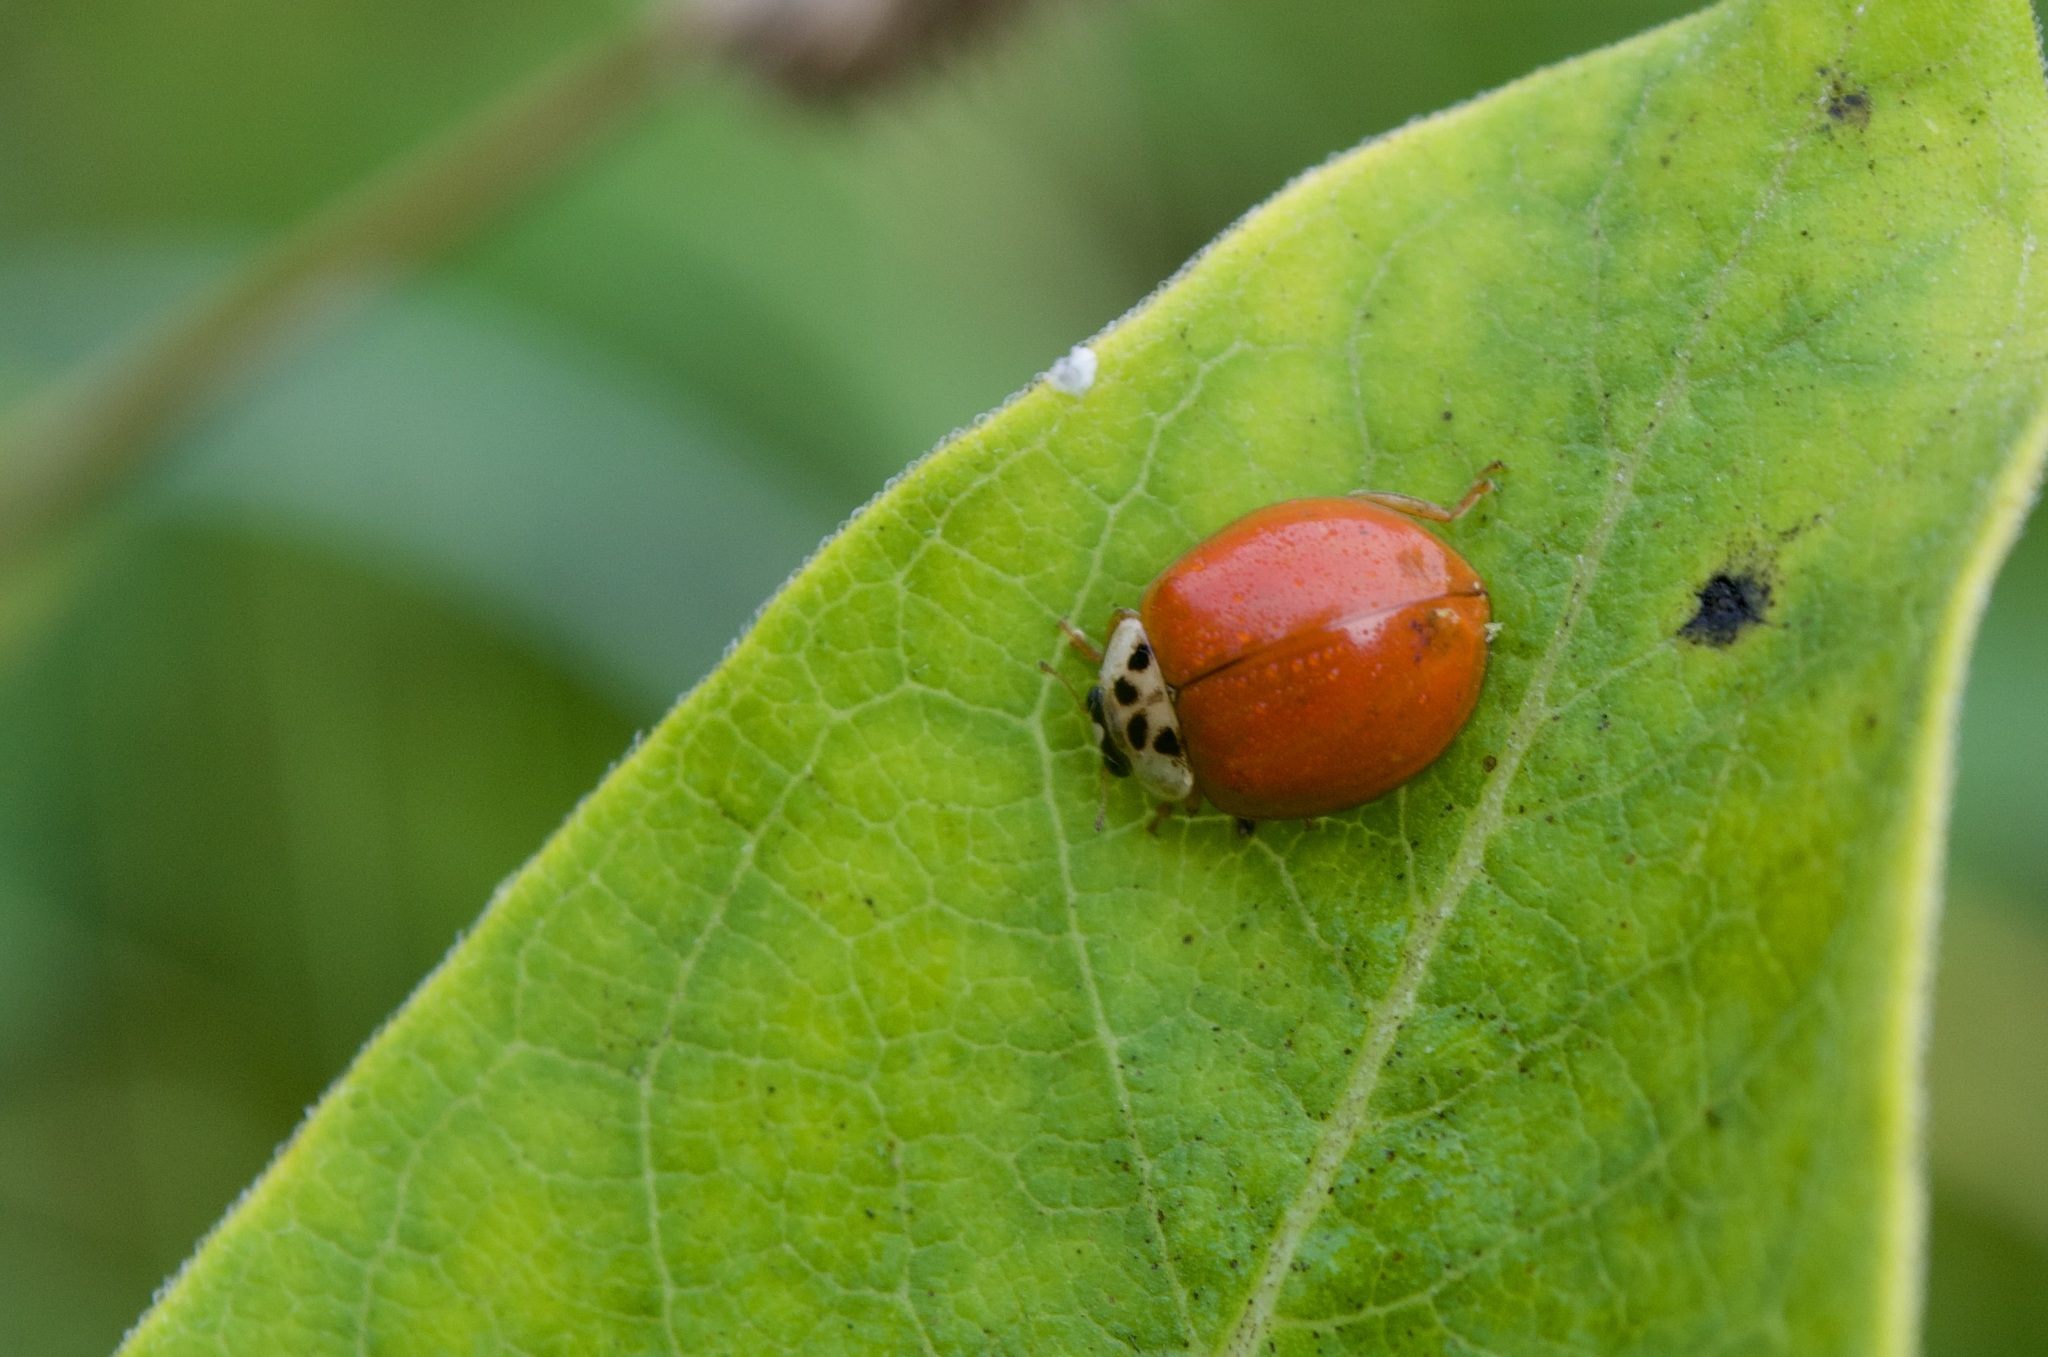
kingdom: Animalia
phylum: Arthropoda
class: Insecta
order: Coleoptera
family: Coccinellidae
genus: Harmonia
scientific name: Harmonia axyridis
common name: Harlequin ladybird
